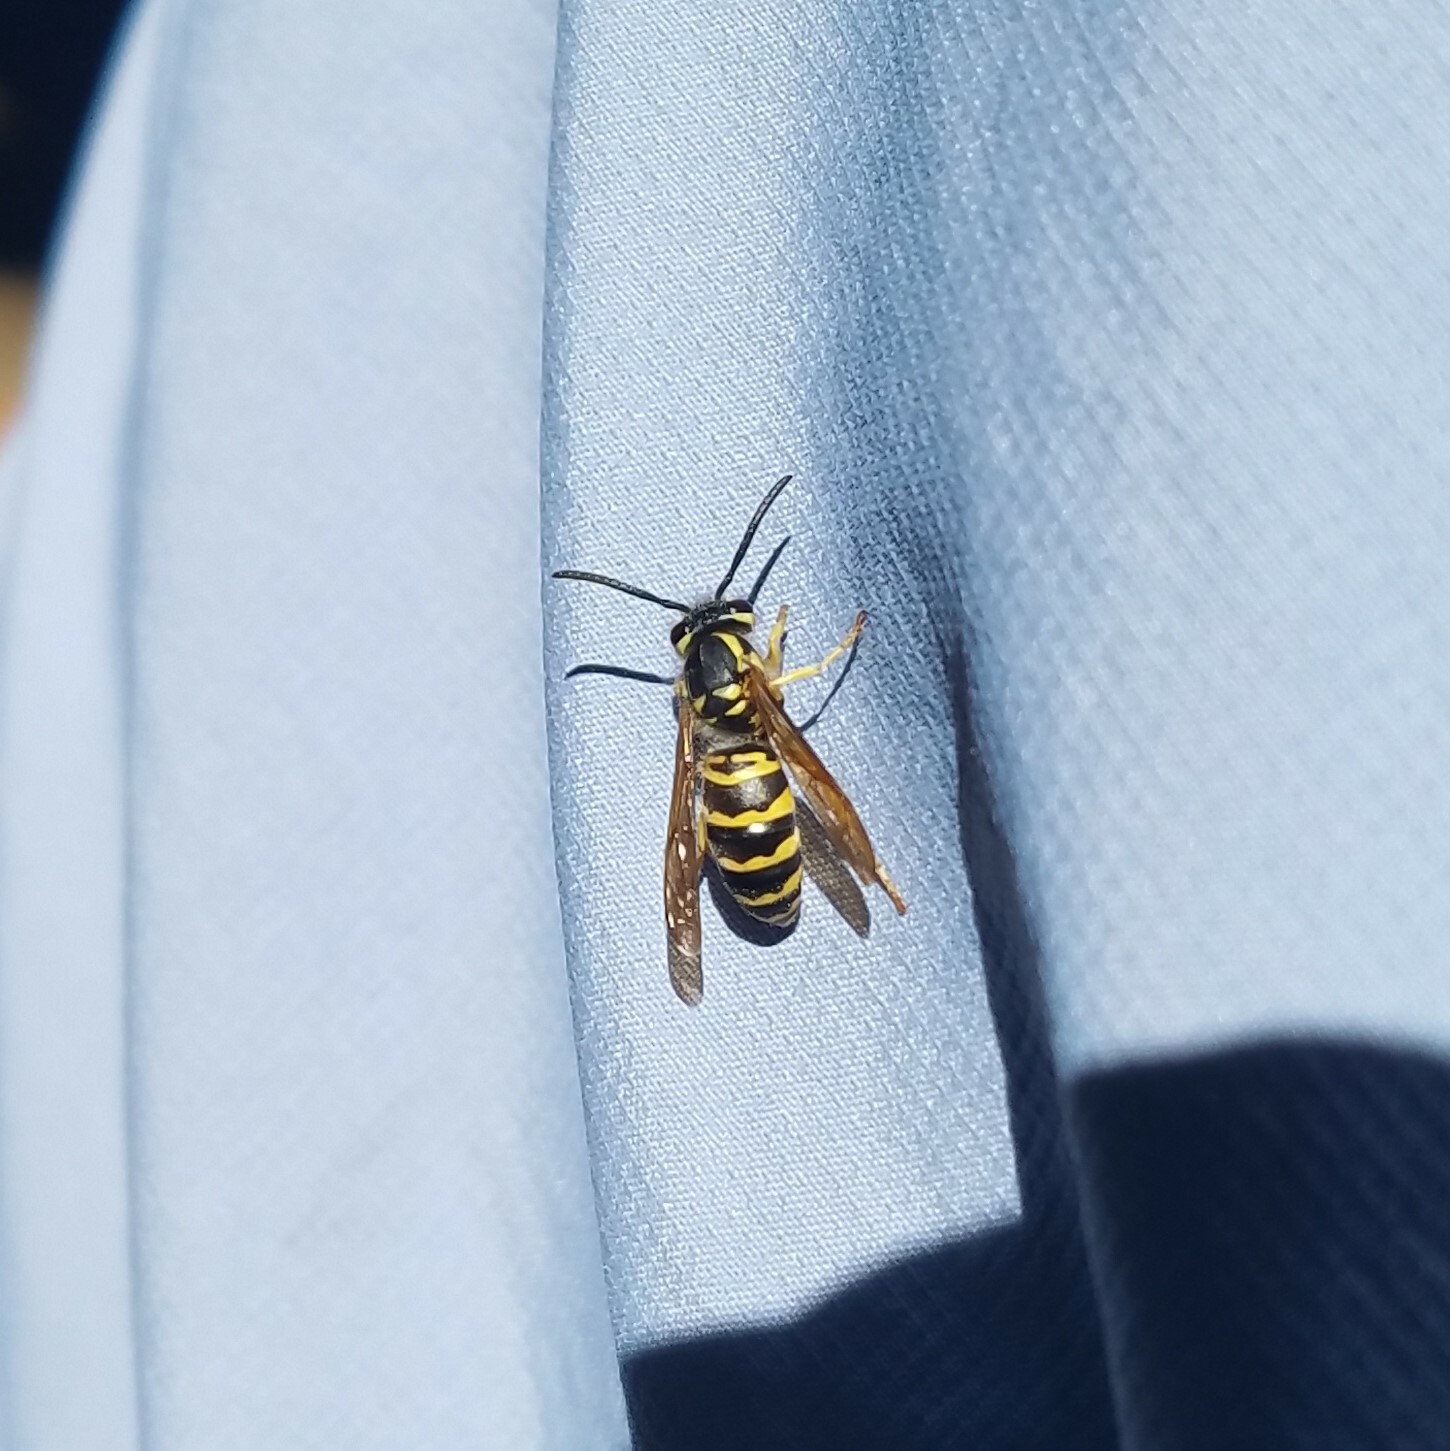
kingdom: Animalia
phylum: Arthropoda
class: Insecta
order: Hymenoptera
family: Vespidae
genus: Vespula
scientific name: Vespula maculifrons
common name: Eastern yellowjacket
